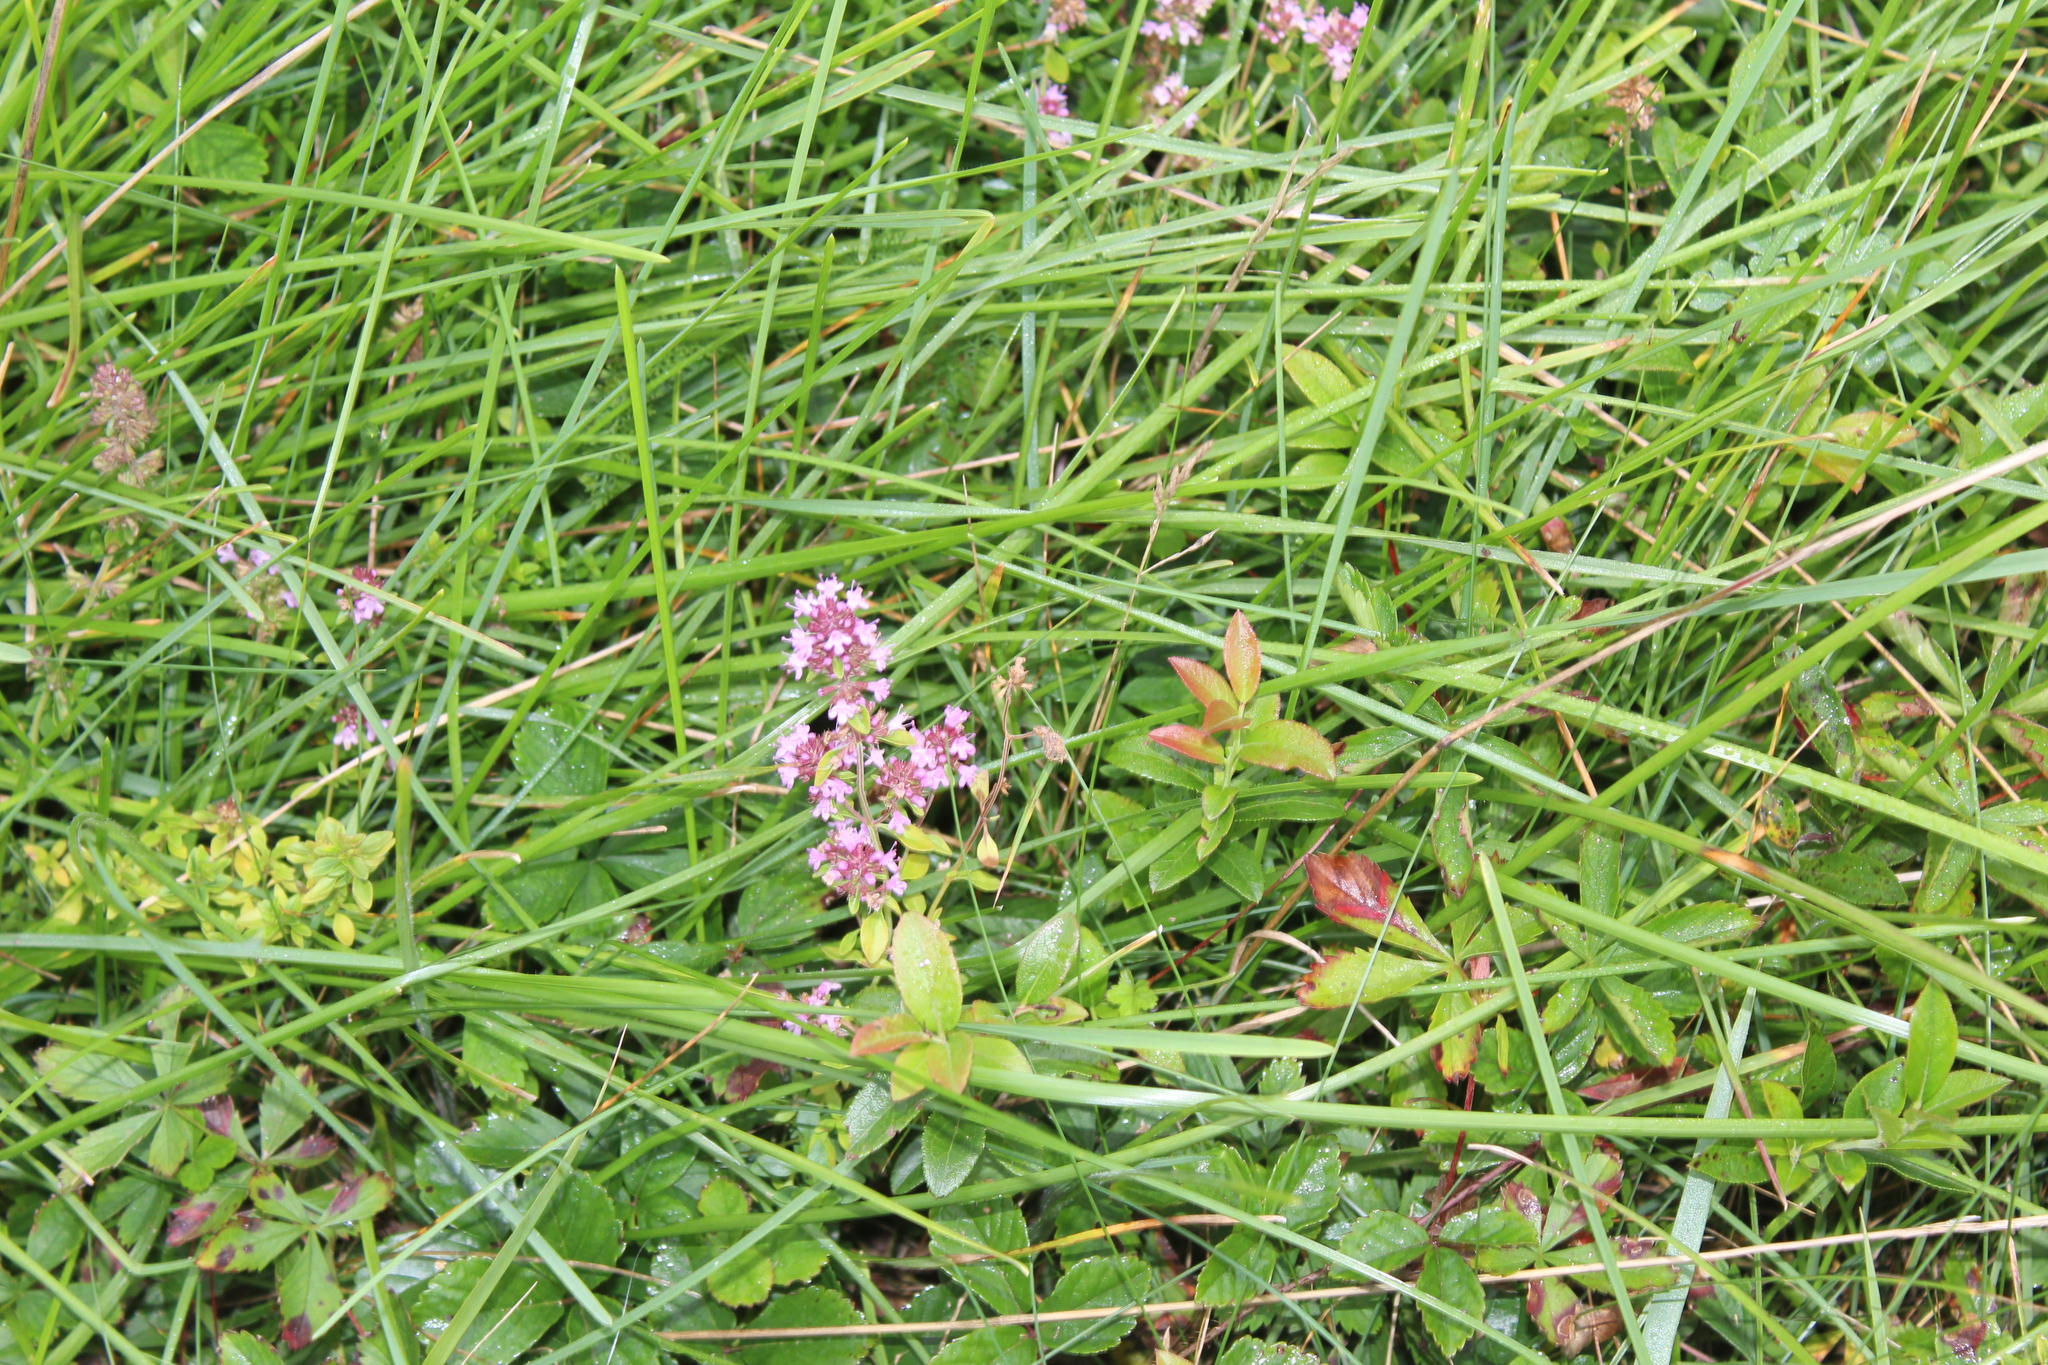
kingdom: Plantae
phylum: Tracheophyta
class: Magnoliopsida
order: Lamiales
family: Lamiaceae
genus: Thymus
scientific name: Thymus pulegioides
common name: Large thyme
